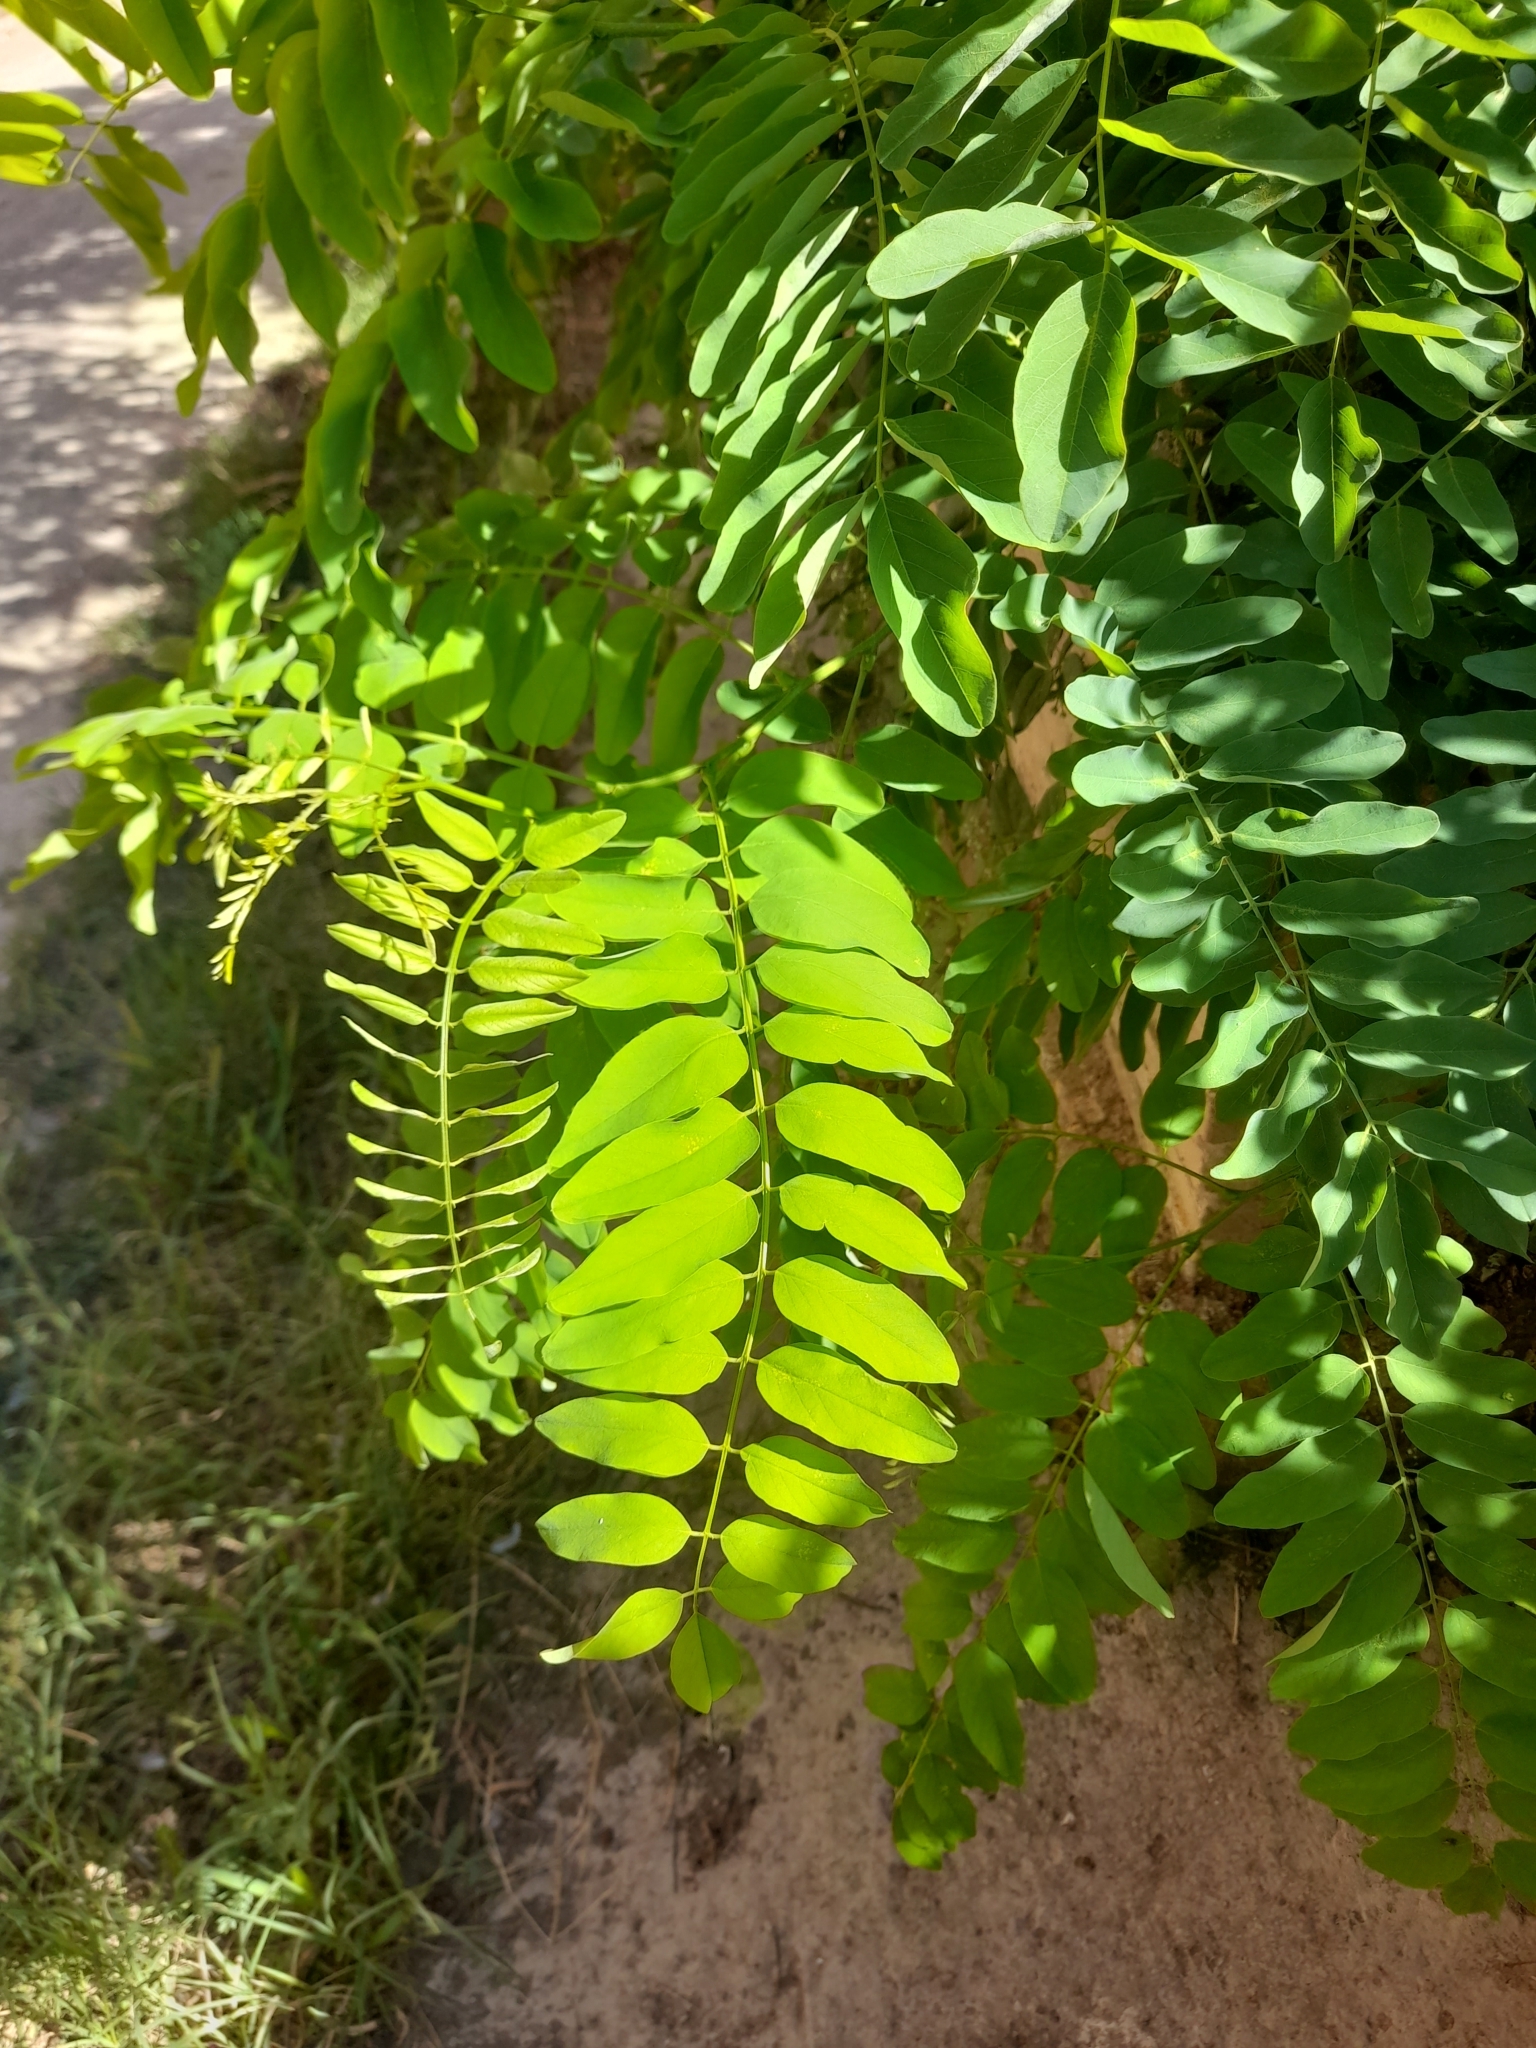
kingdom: Plantae
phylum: Tracheophyta
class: Magnoliopsida
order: Fabales
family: Fabaceae
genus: Robinia
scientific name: Robinia pseudoacacia
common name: Black locust
